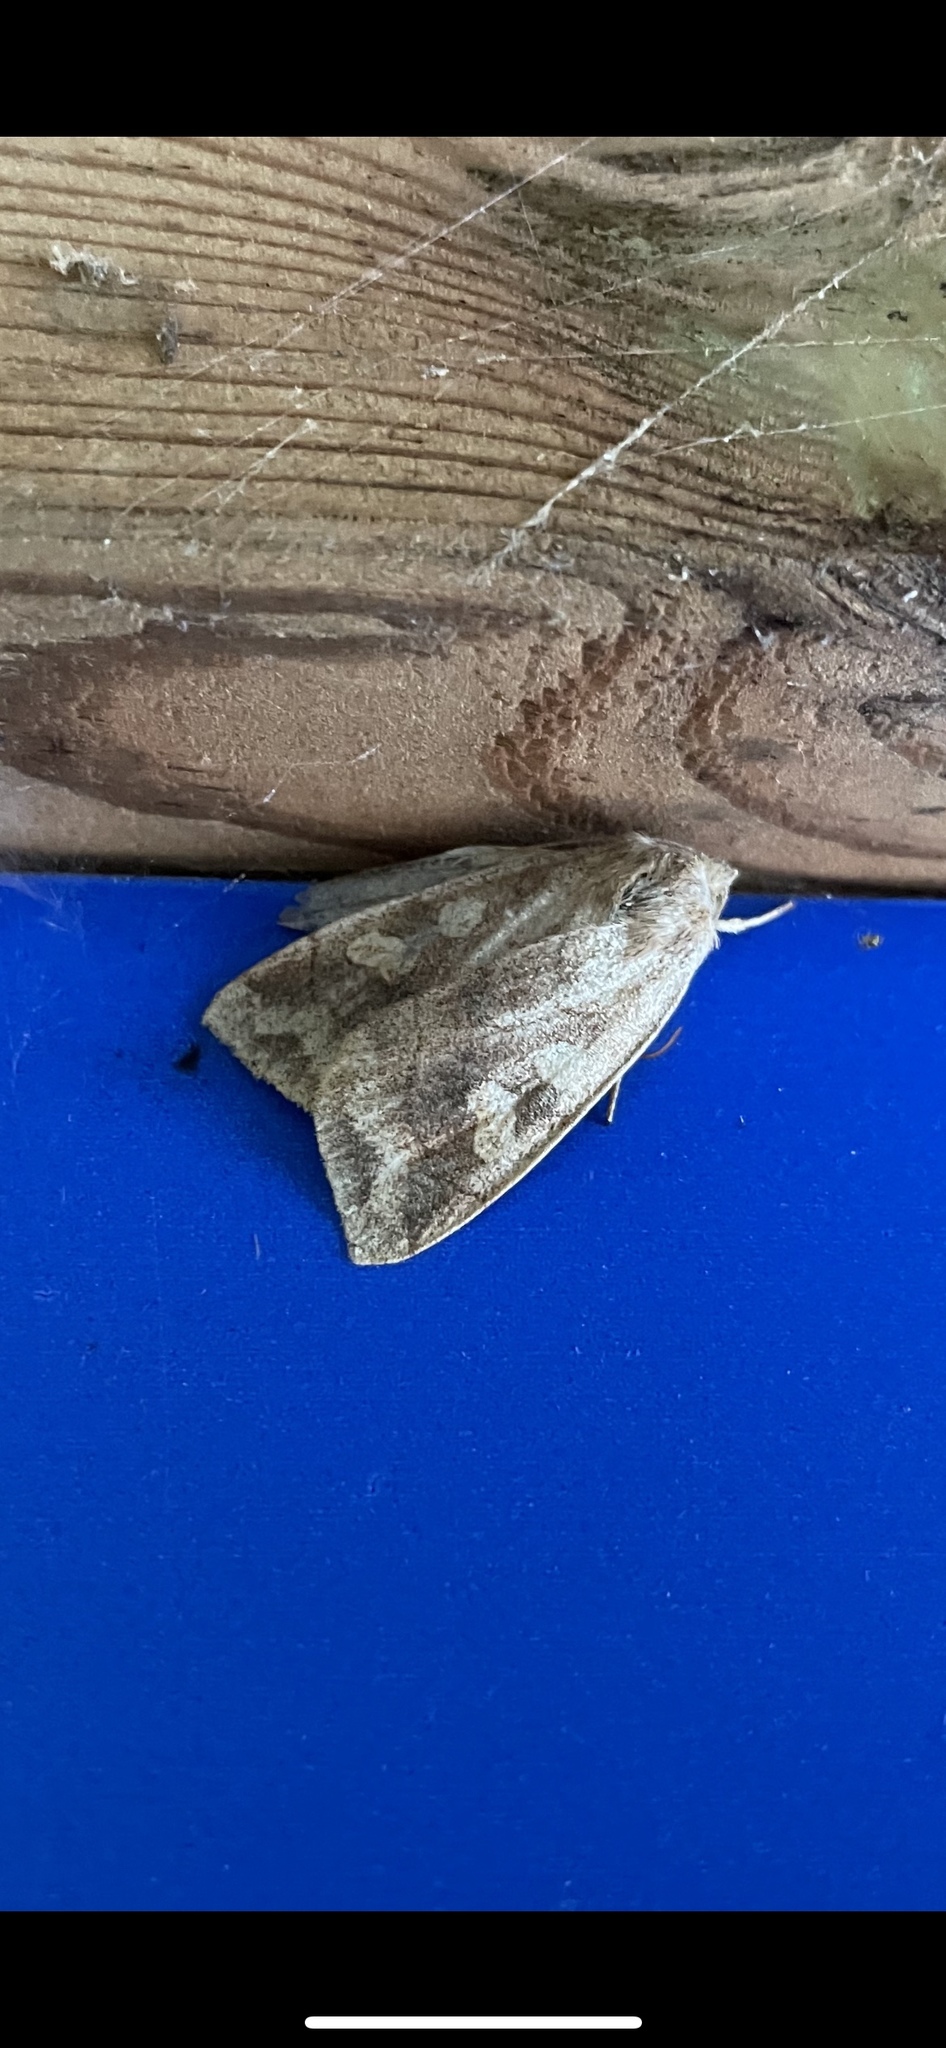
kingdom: Animalia
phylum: Arthropoda
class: Insecta
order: Lepidoptera
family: Noctuidae
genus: Enargia
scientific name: Enargia decolor
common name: Aspen twoleaf tier moth
